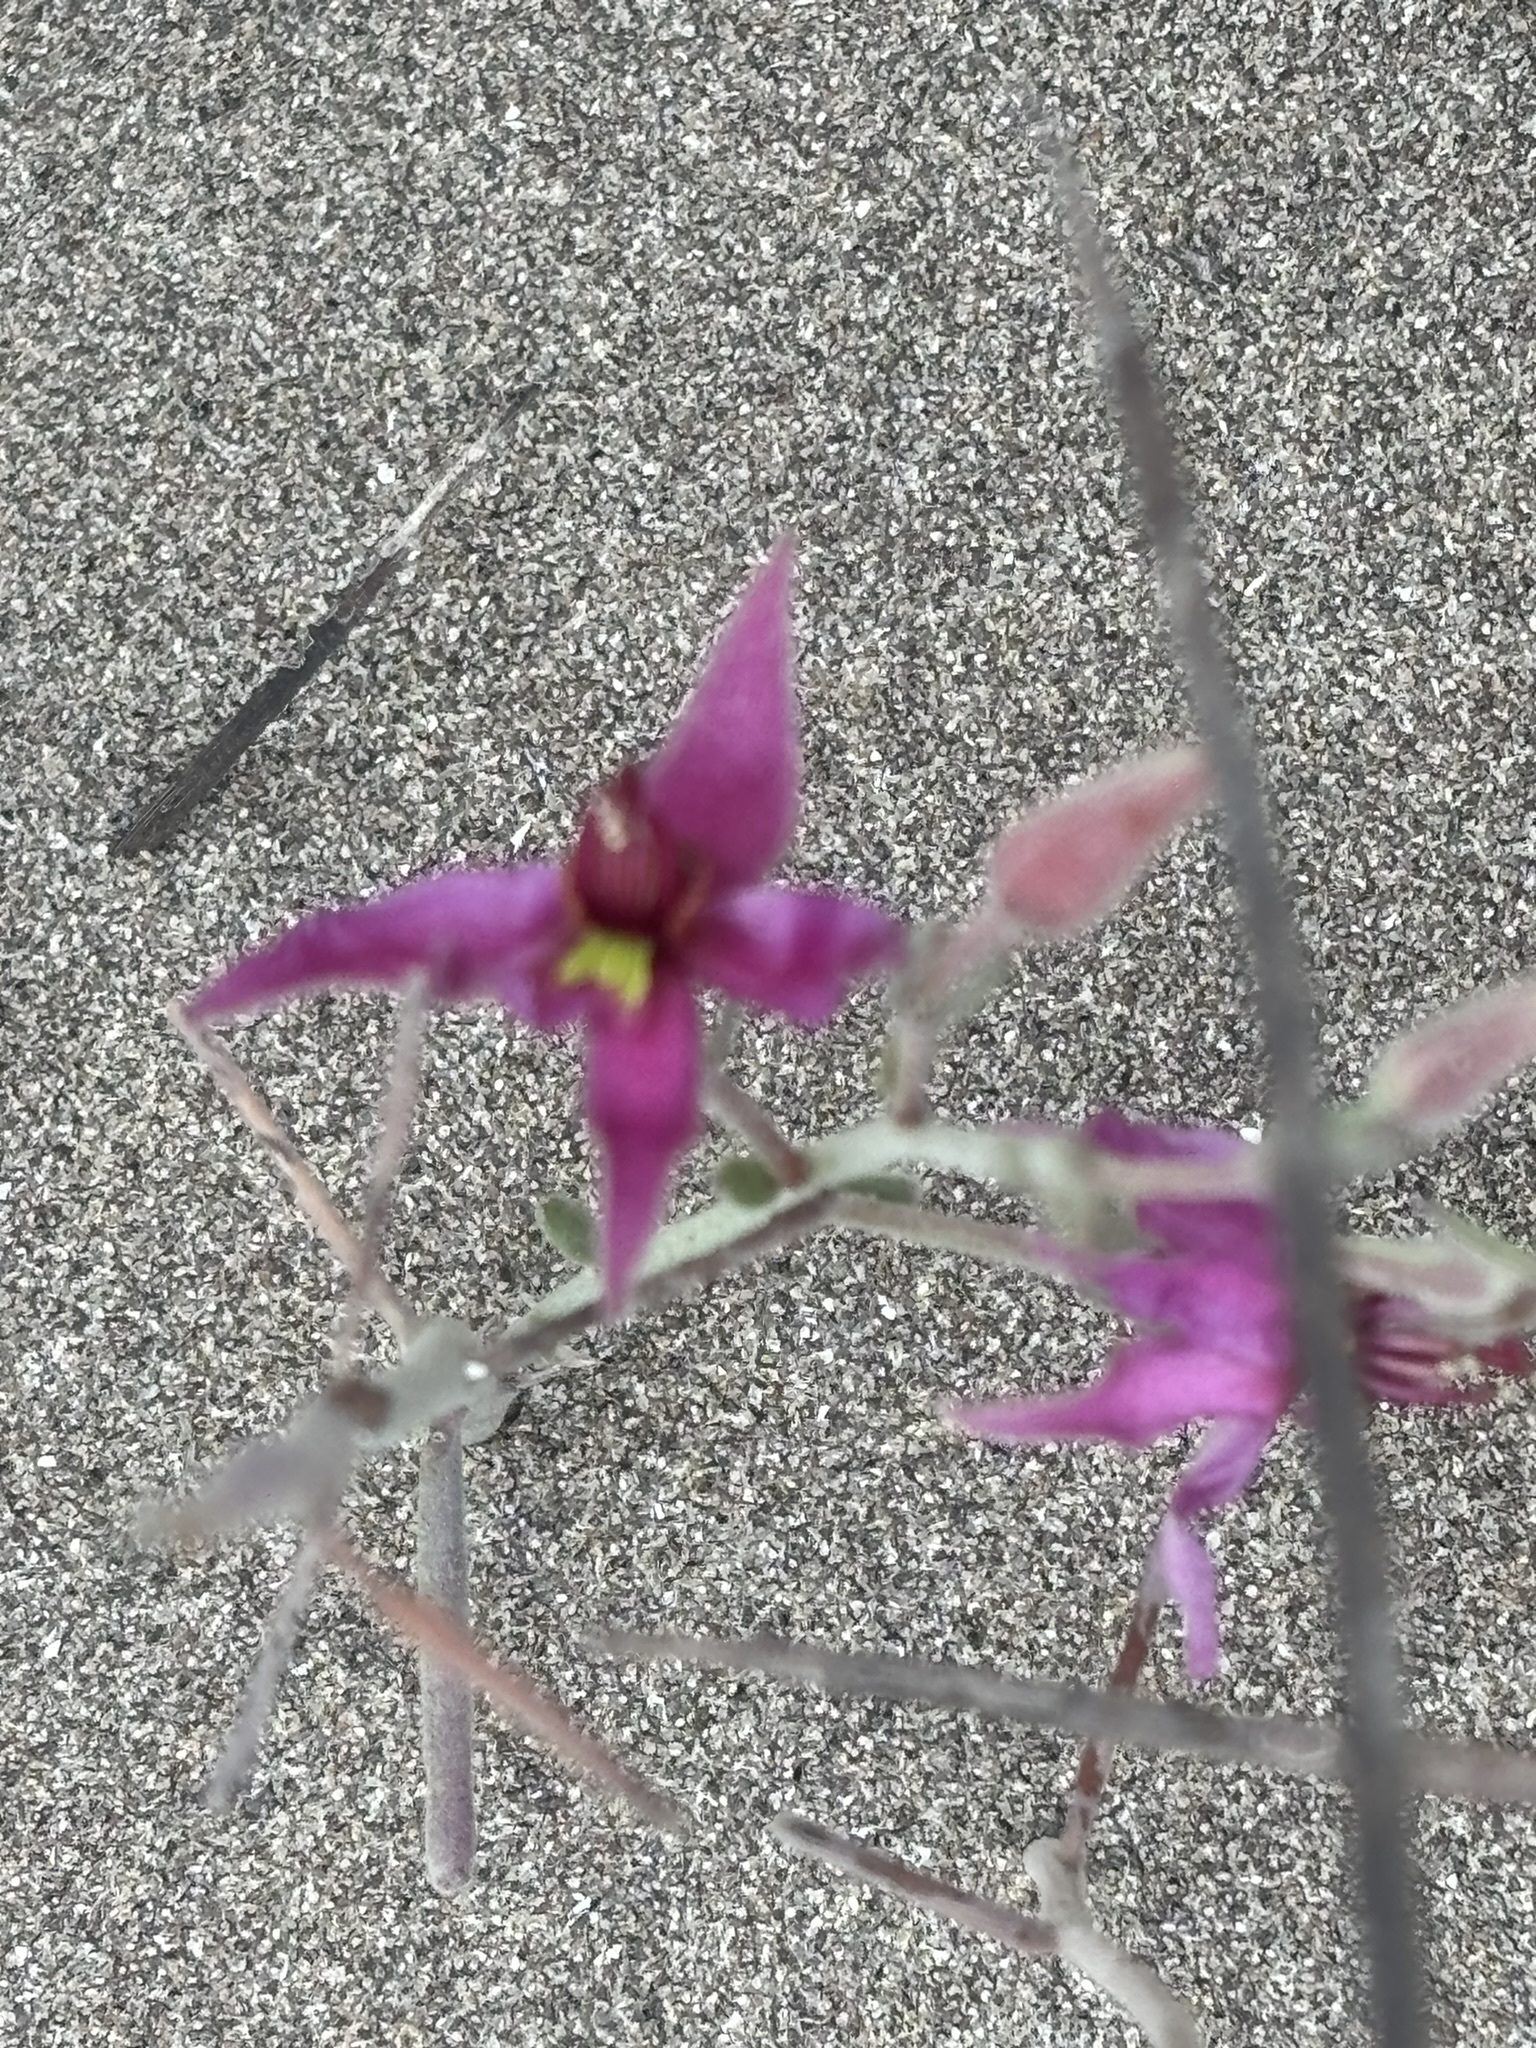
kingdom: Plantae
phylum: Tracheophyta
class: Magnoliopsida
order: Zygophyllales
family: Krameriaceae
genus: Krameria
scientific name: Krameria bicolor
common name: White ratany
